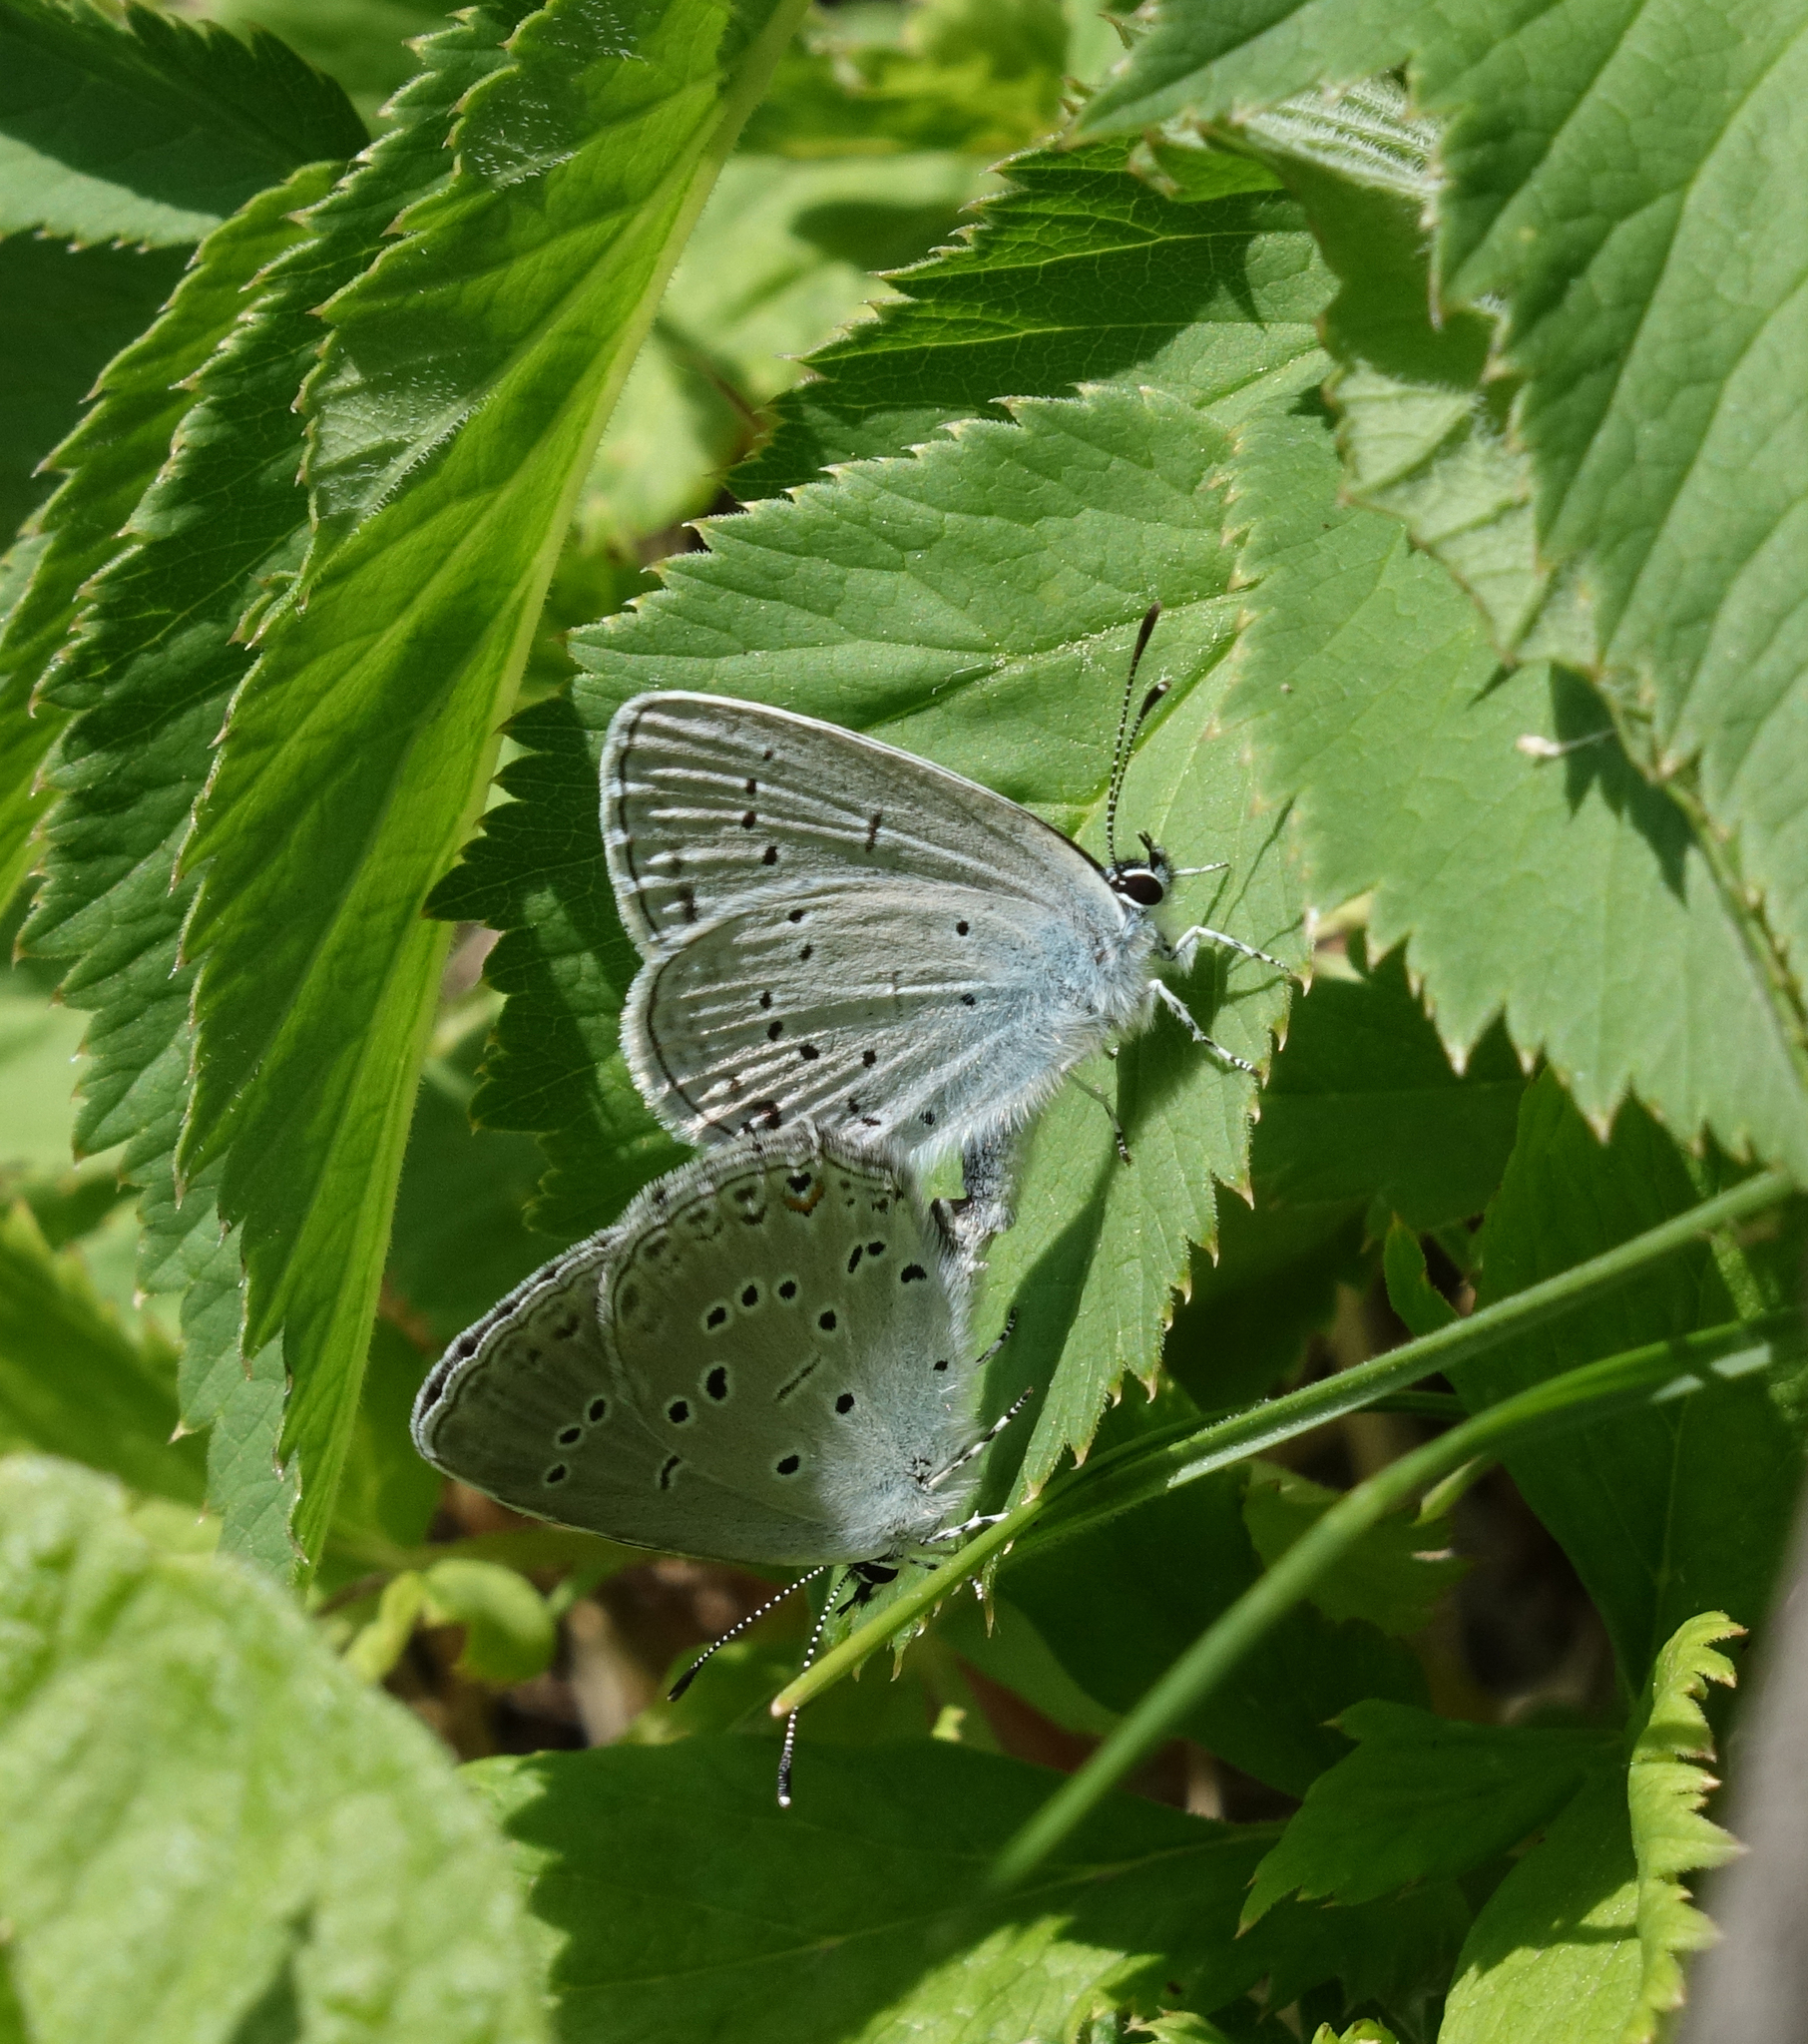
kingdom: Animalia
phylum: Arthropoda
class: Insecta
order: Lepidoptera
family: Lycaenidae
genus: Elkalyce
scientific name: Elkalyce alcetas
